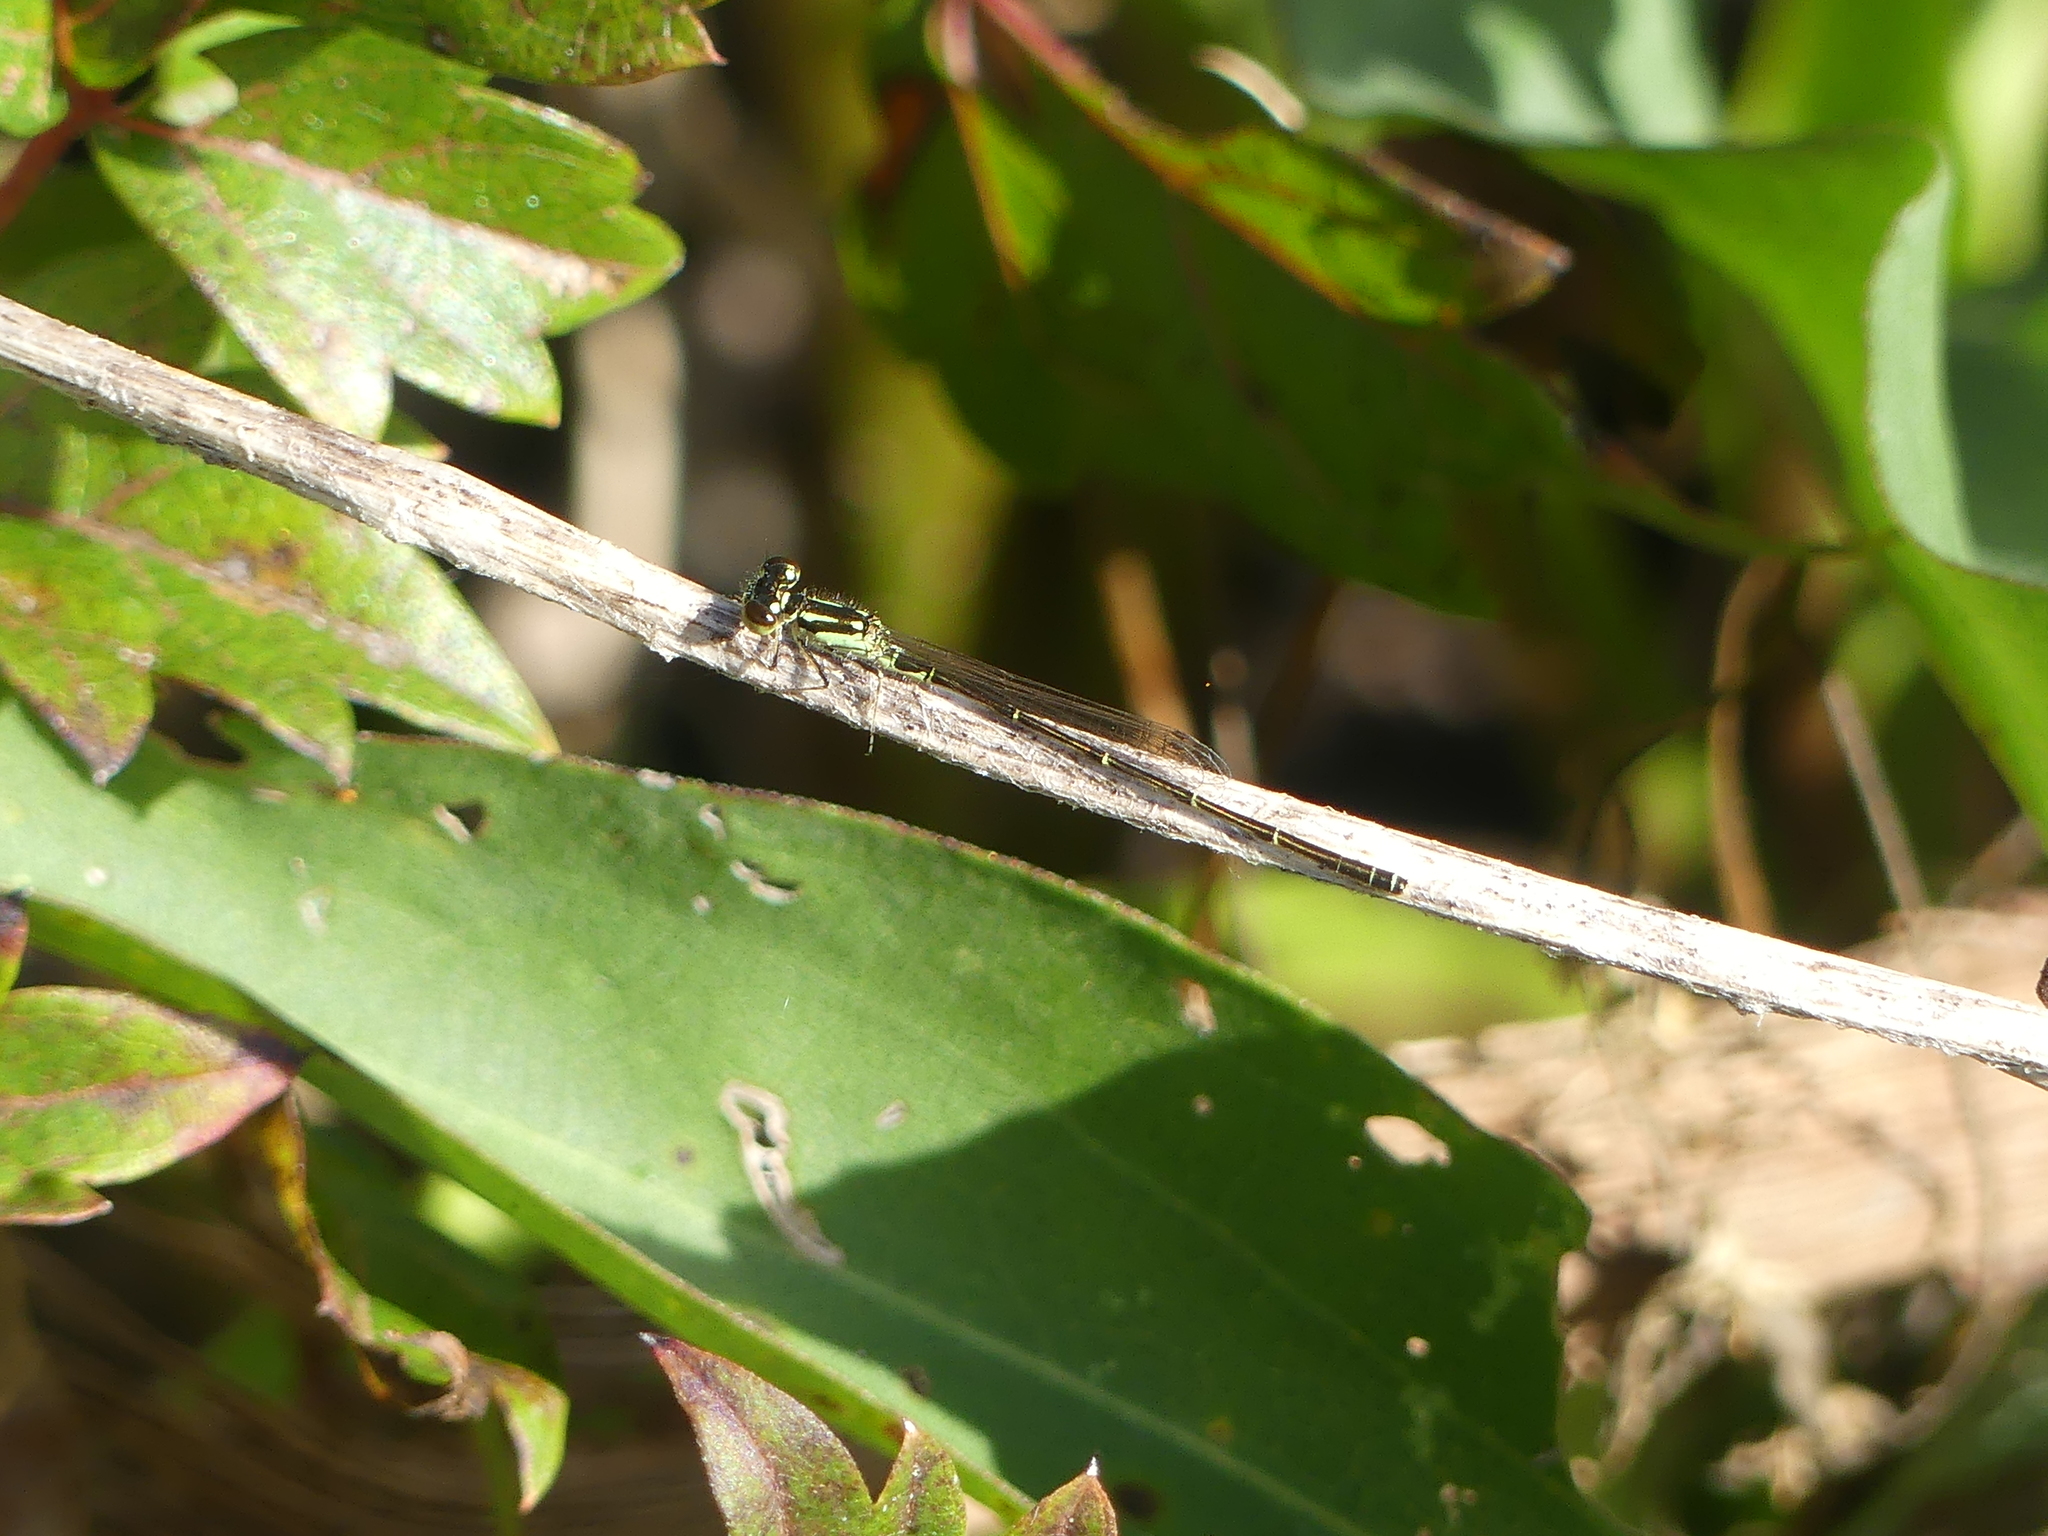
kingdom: Animalia
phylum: Arthropoda
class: Insecta
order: Odonata
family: Coenagrionidae
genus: Ischnura
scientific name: Ischnura posita
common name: Fragile forktail
